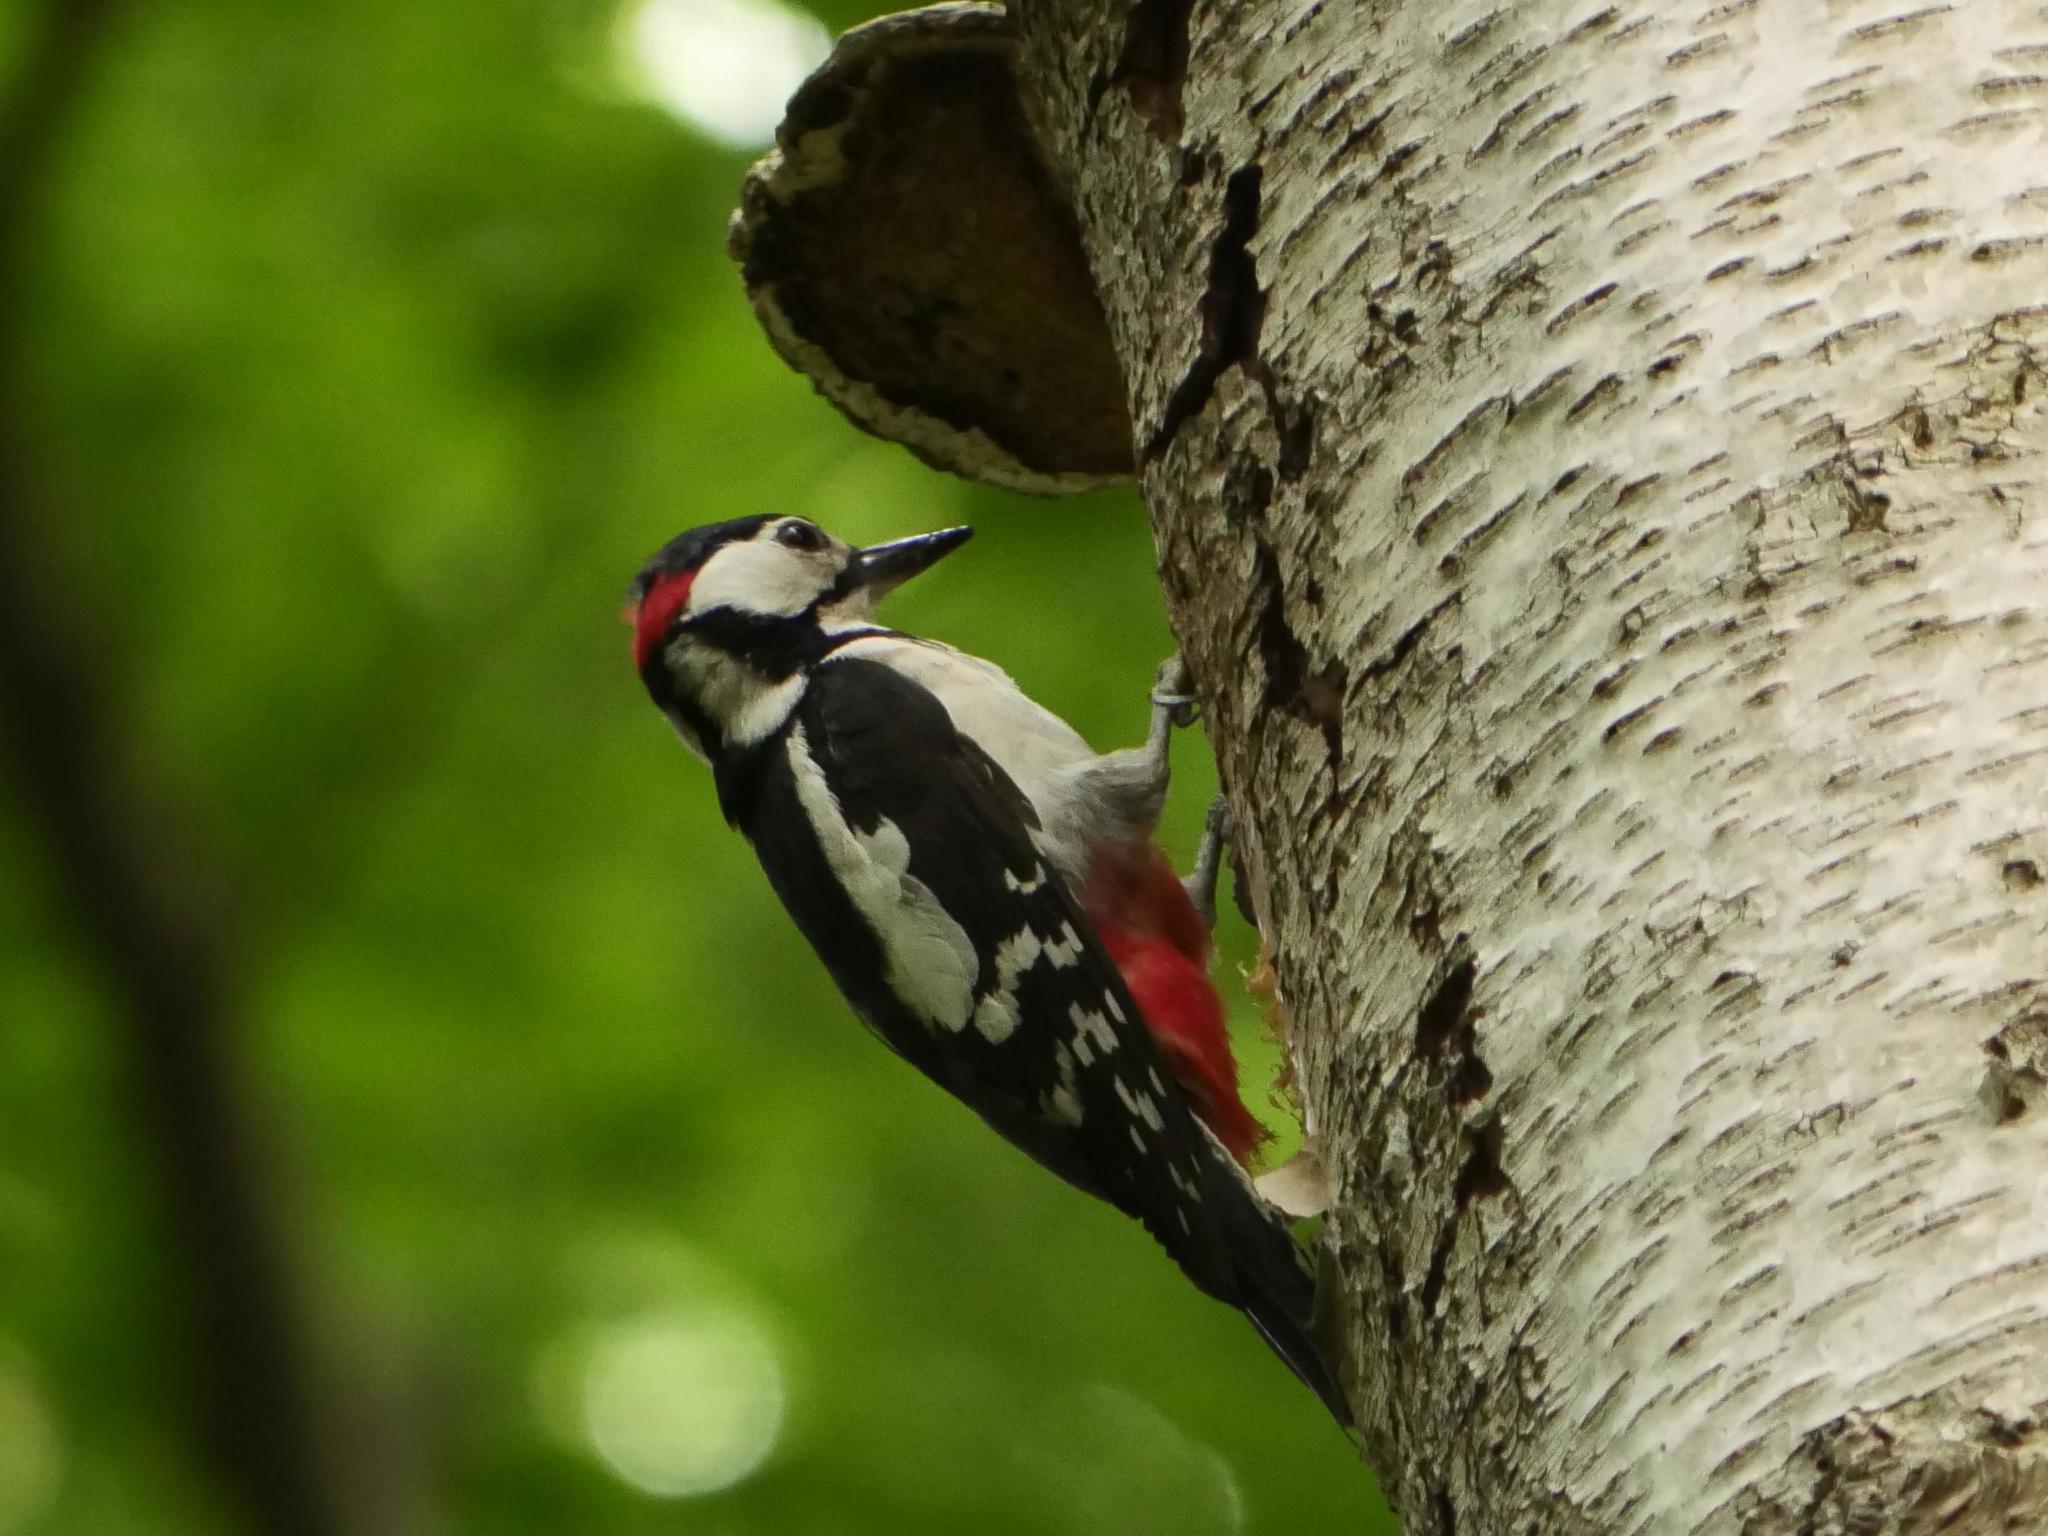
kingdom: Animalia
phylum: Chordata
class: Aves
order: Piciformes
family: Picidae
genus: Dendrocopos
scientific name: Dendrocopos major
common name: Great spotted woodpecker
